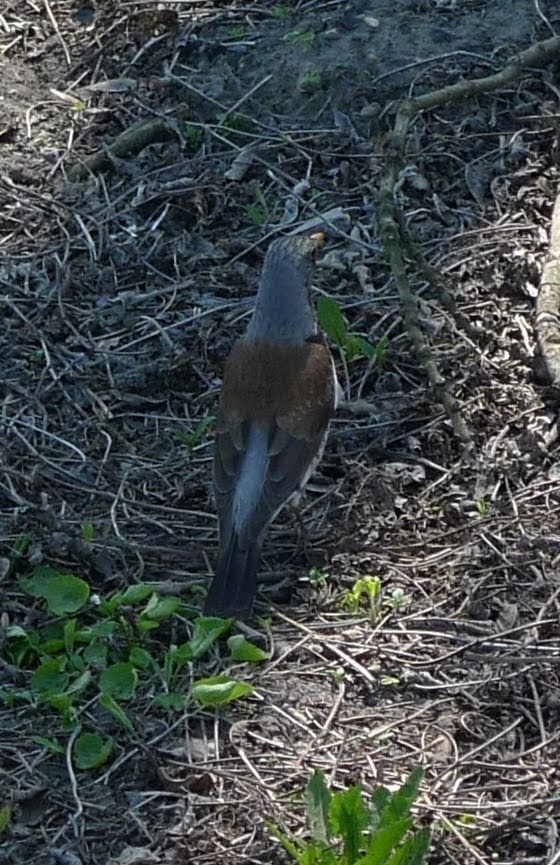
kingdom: Animalia
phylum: Chordata
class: Aves
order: Passeriformes
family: Turdidae
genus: Turdus
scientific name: Turdus pilaris
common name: Fieldfare
